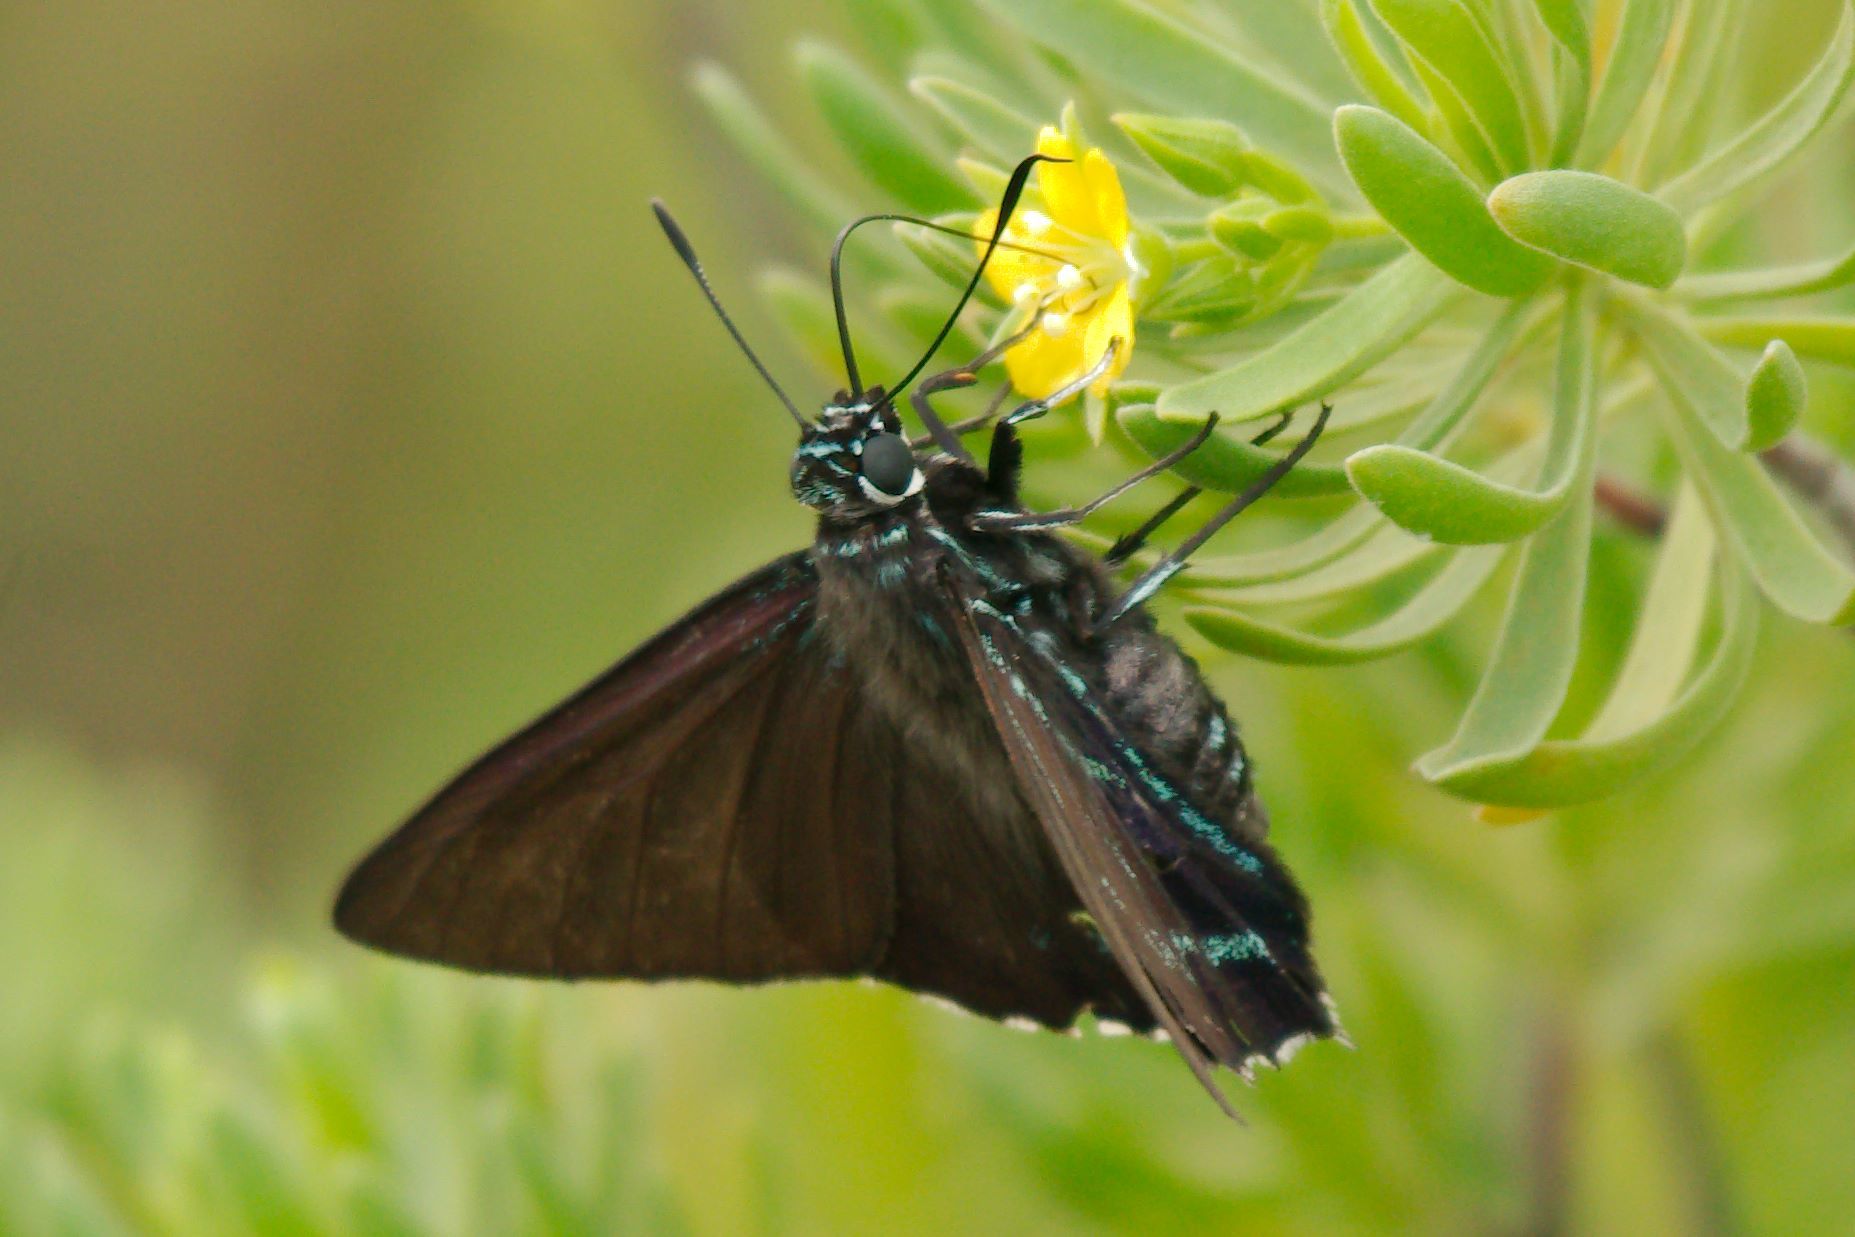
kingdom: Animalia
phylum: Arthropoda
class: Insecta
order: Lepidoptera
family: Hesperiidae
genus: Phocides
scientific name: Phocides pigmalion
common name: Mangrove skipper
